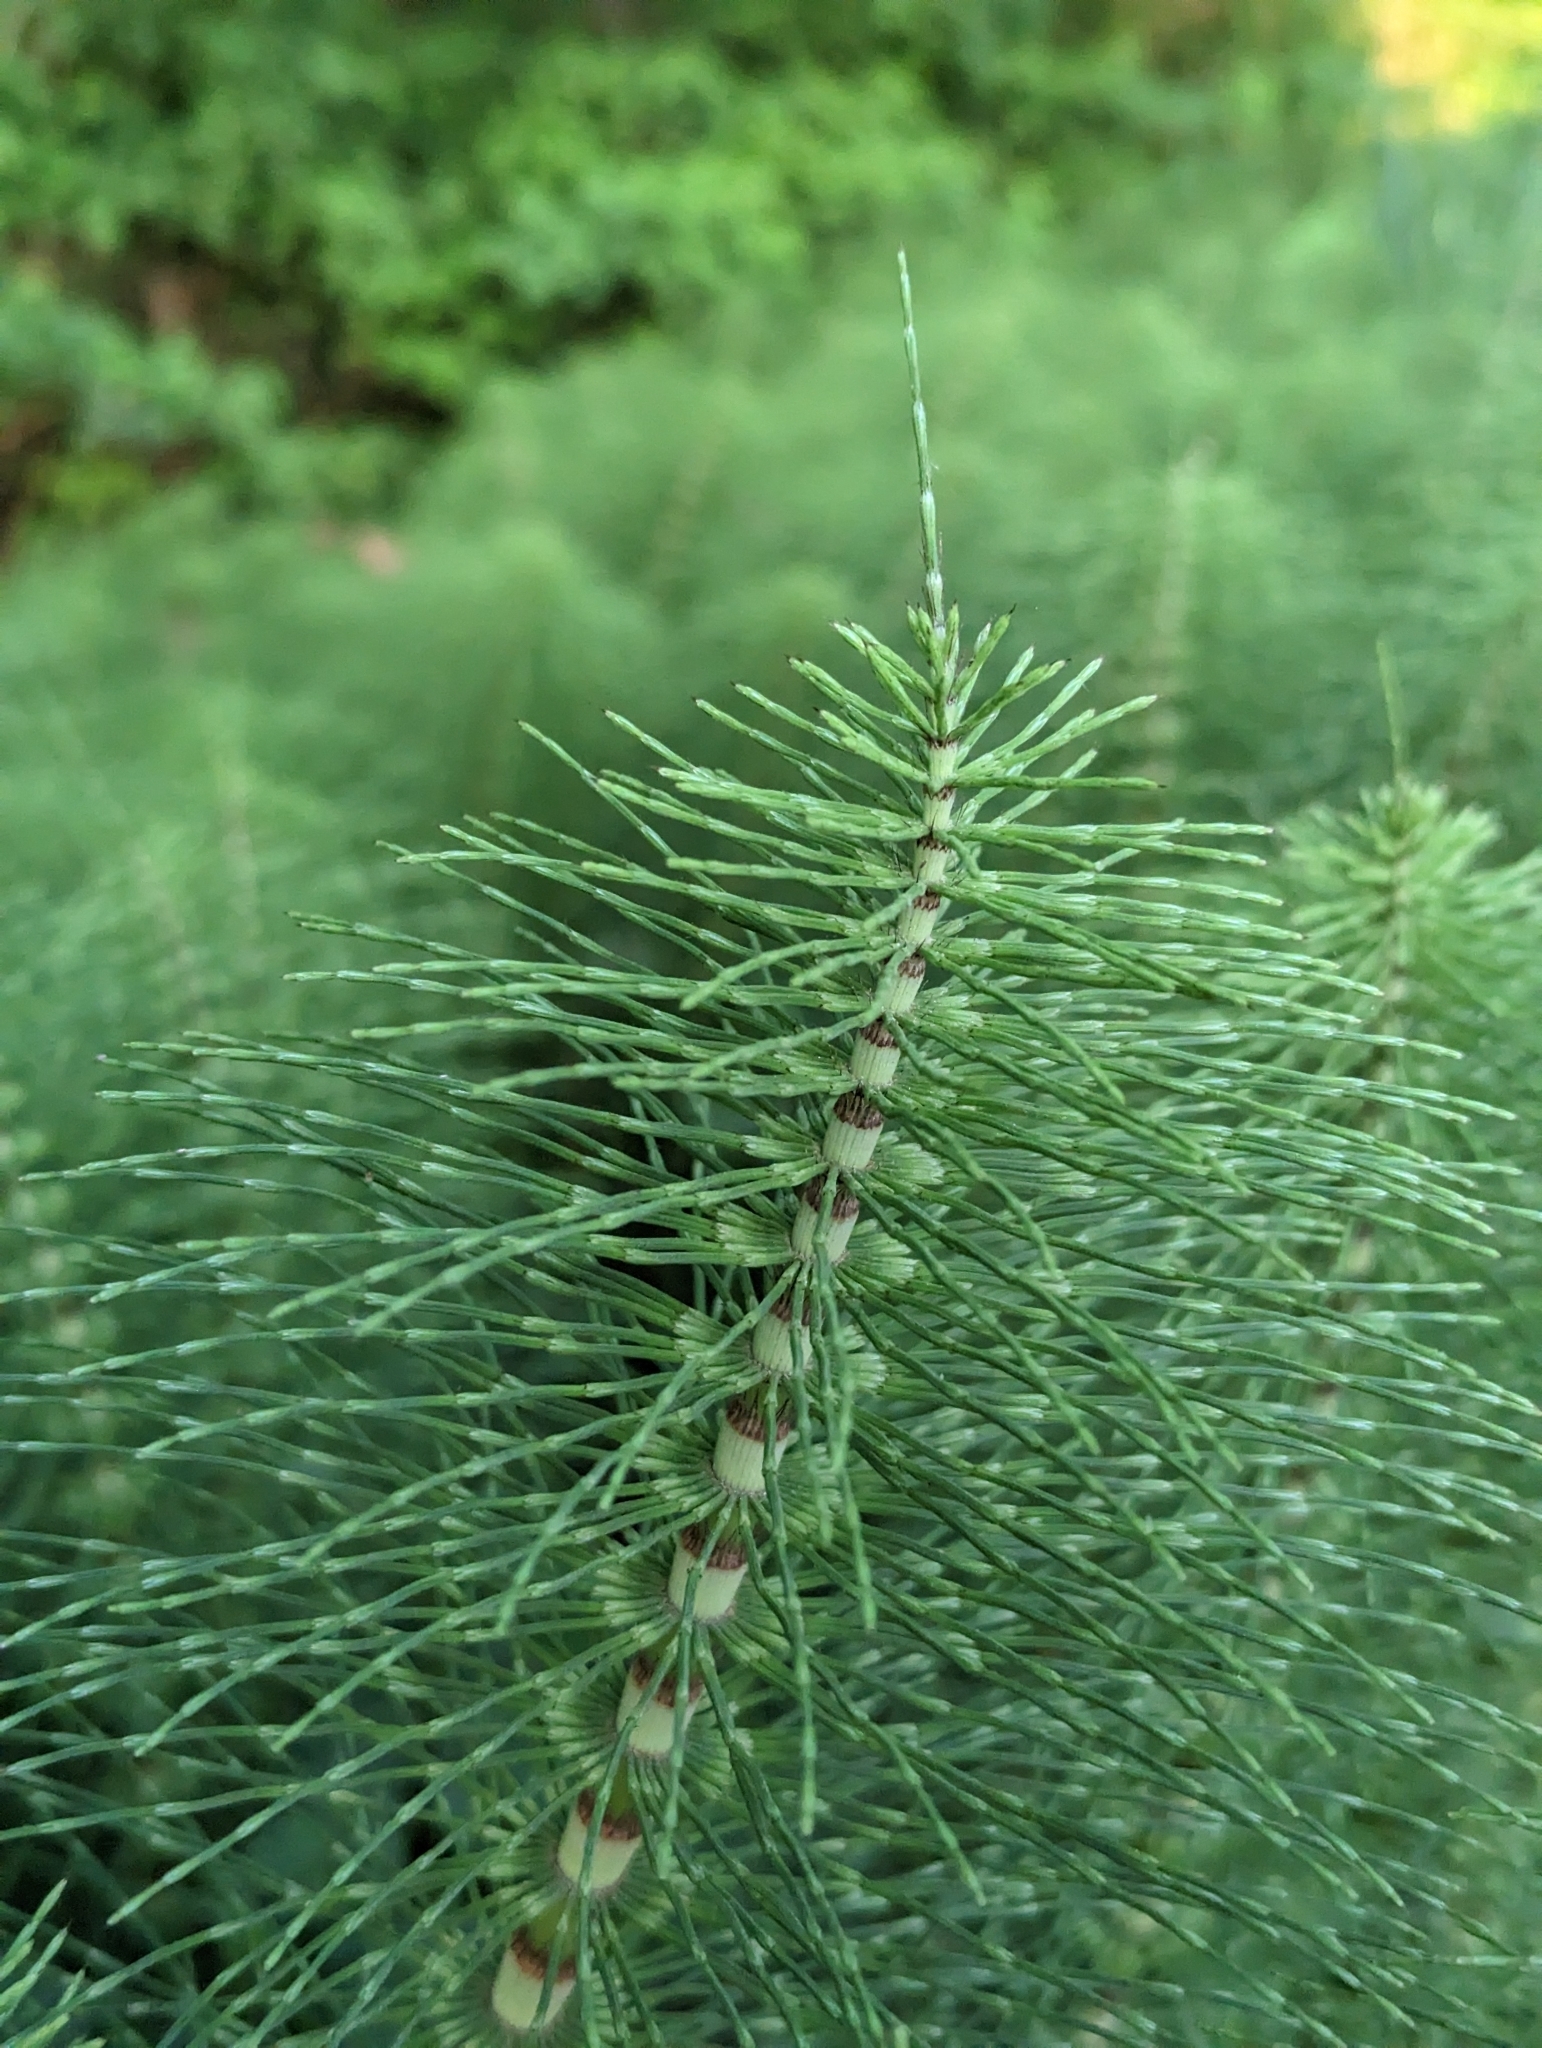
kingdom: Plantae
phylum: Tracheophyta
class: Polypodiopsida
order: Equisetales
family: Equisetaceae
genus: Equisetum
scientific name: Equisetum braunii
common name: Braun's horsetail
